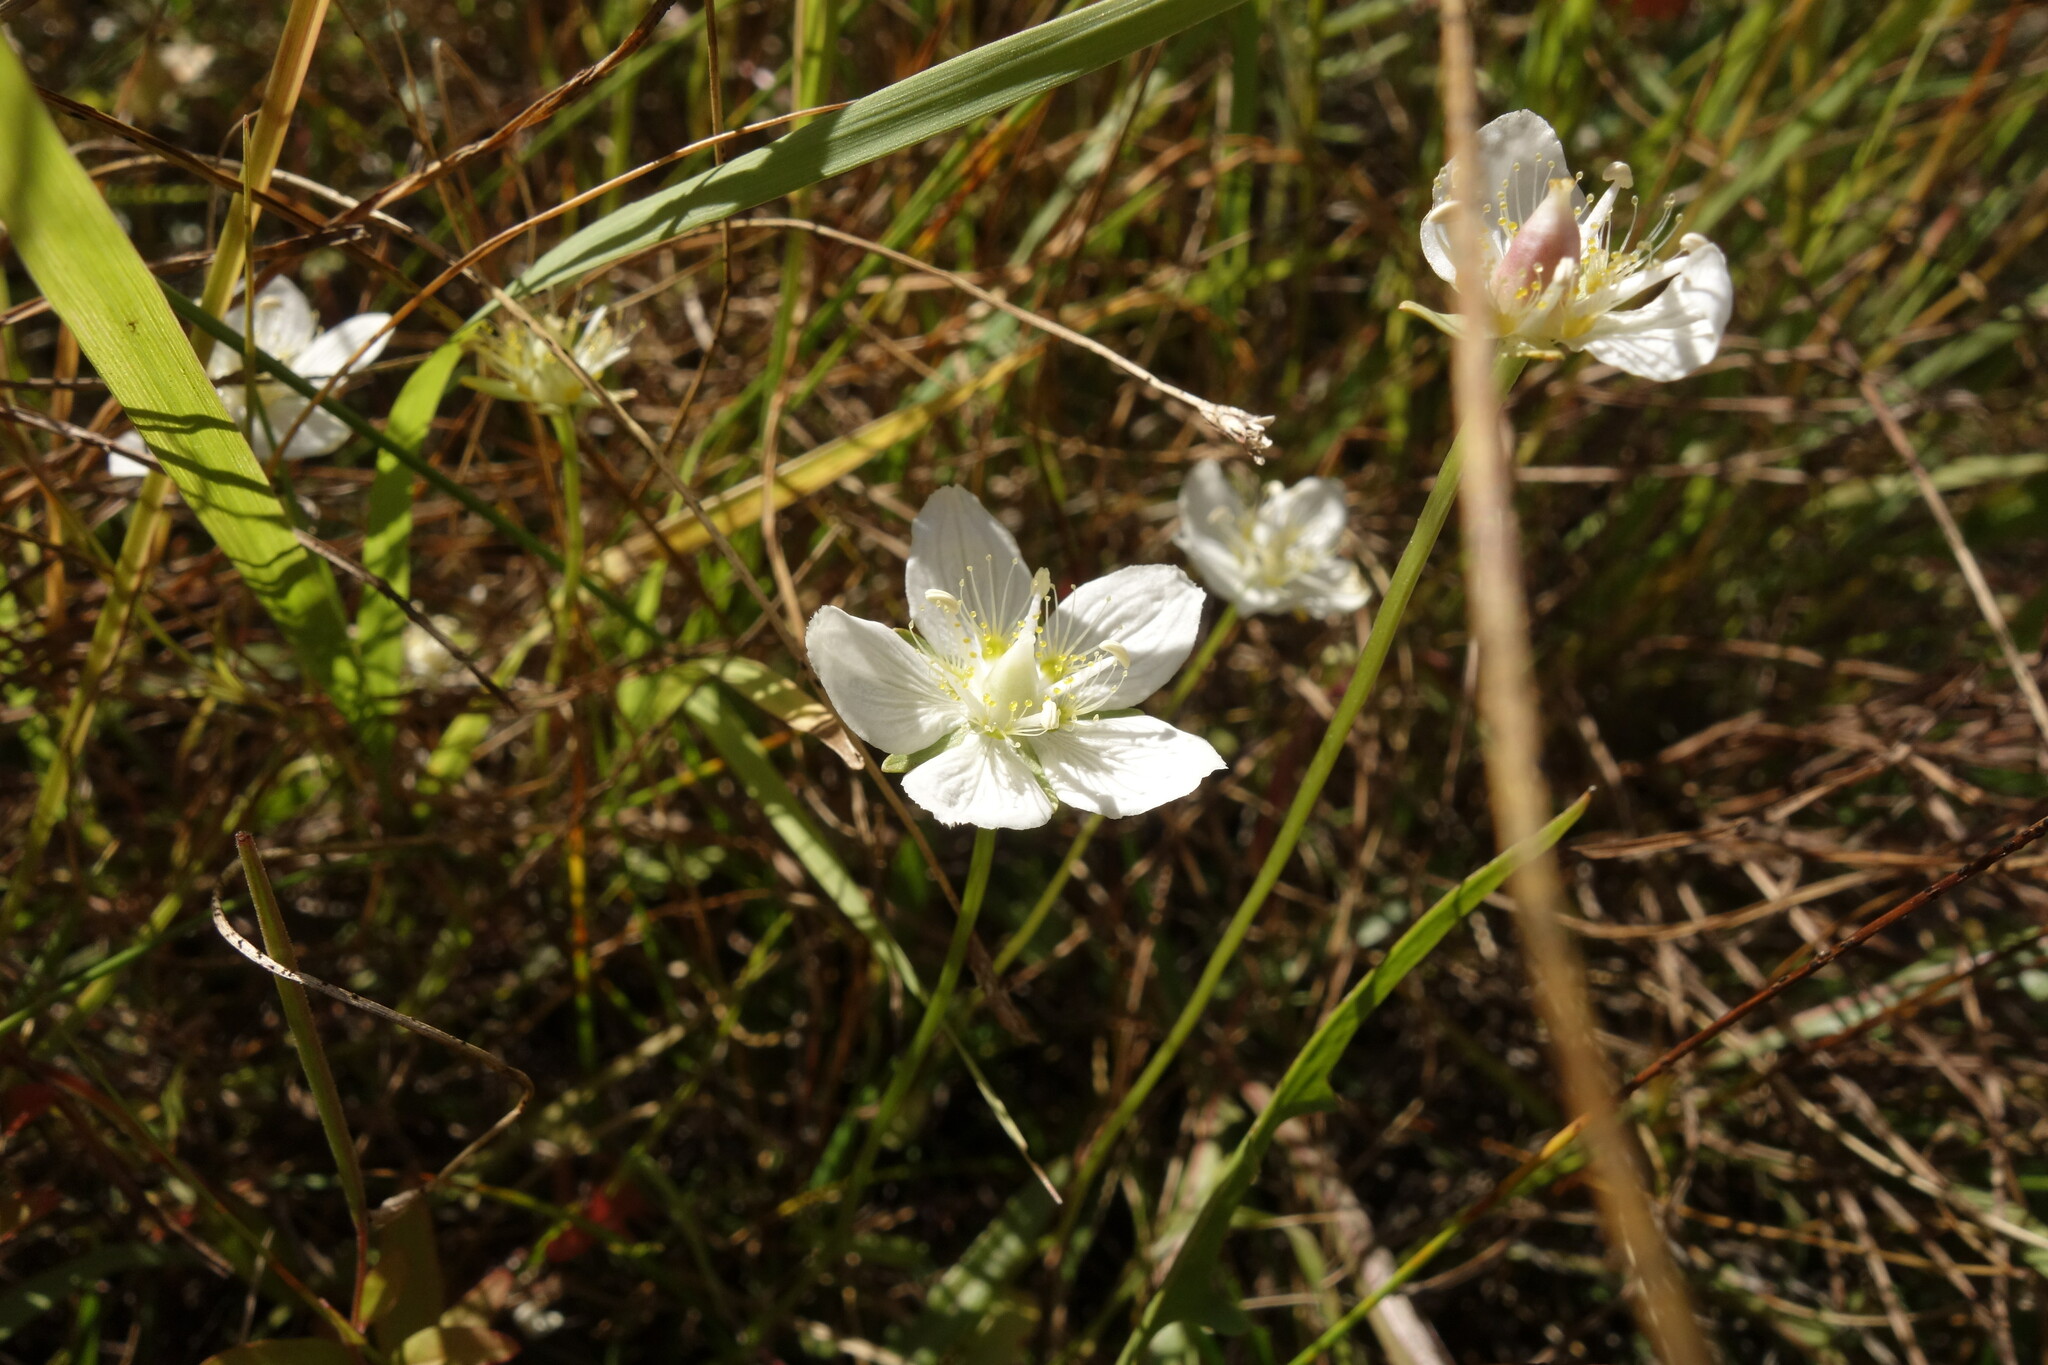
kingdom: Plantae
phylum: Tracheophyta
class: Magnoliopsida
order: Celastrales
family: Parnassiaceae
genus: Parnassia
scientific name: Parnassia palustris
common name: Grass-of-parnassus
